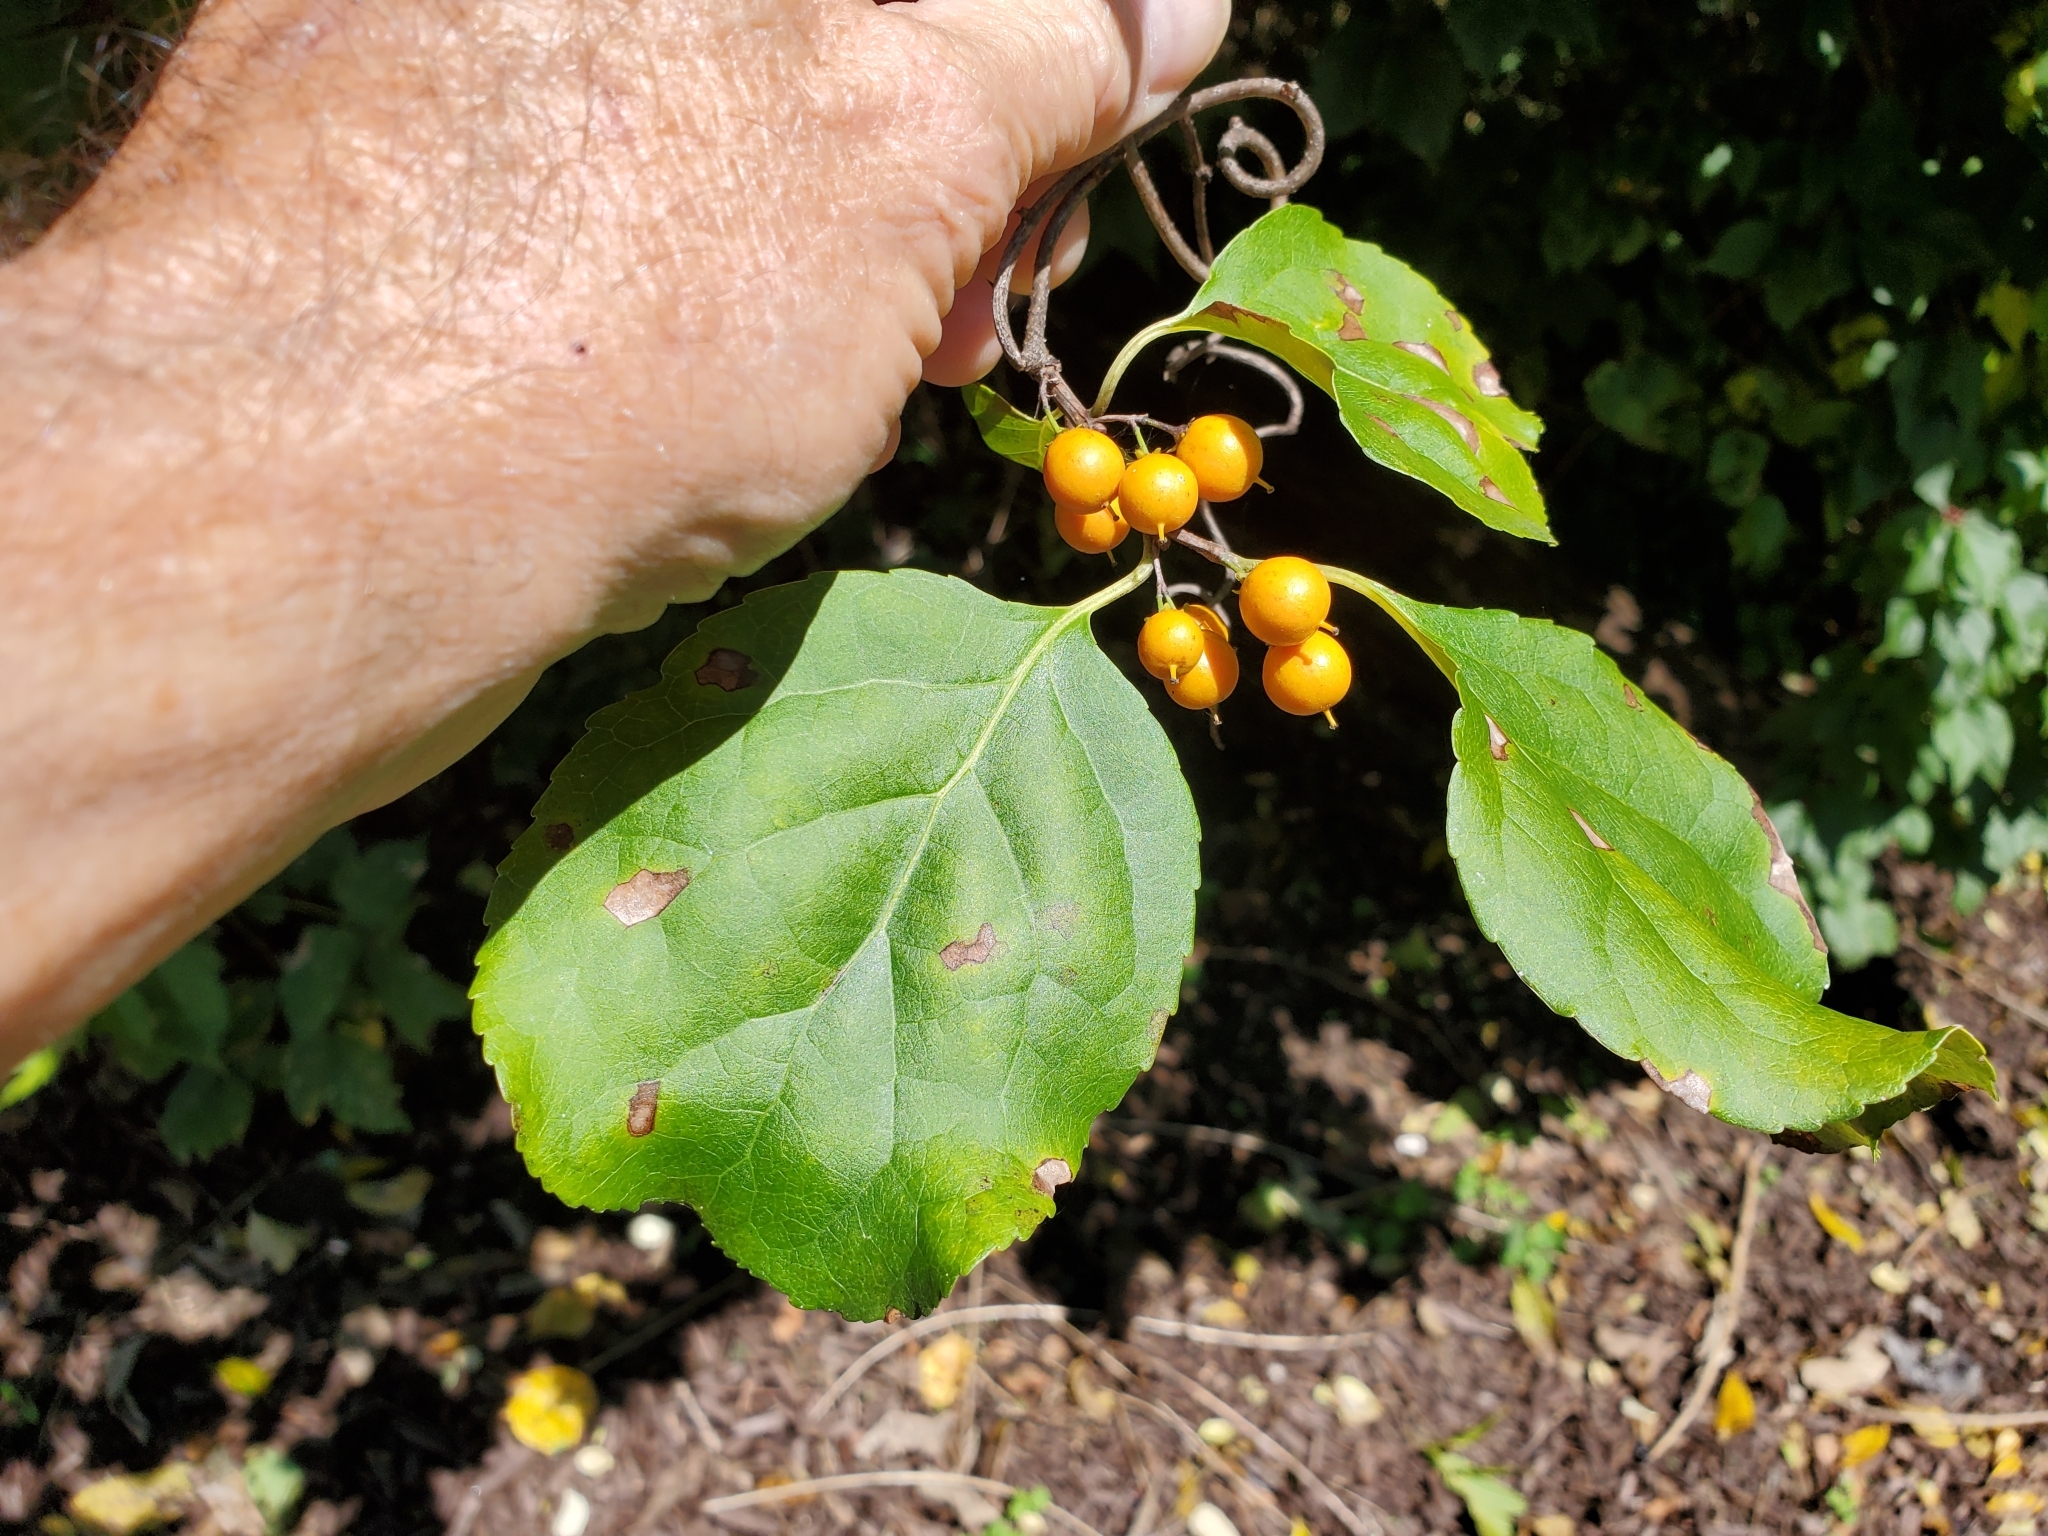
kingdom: Plantae
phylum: Tracheophyta
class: Magnoliopsida
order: Celastrales
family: Celastraceae
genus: Celastrus
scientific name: Celastrus orbiculatus
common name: Oriental bittersweet
